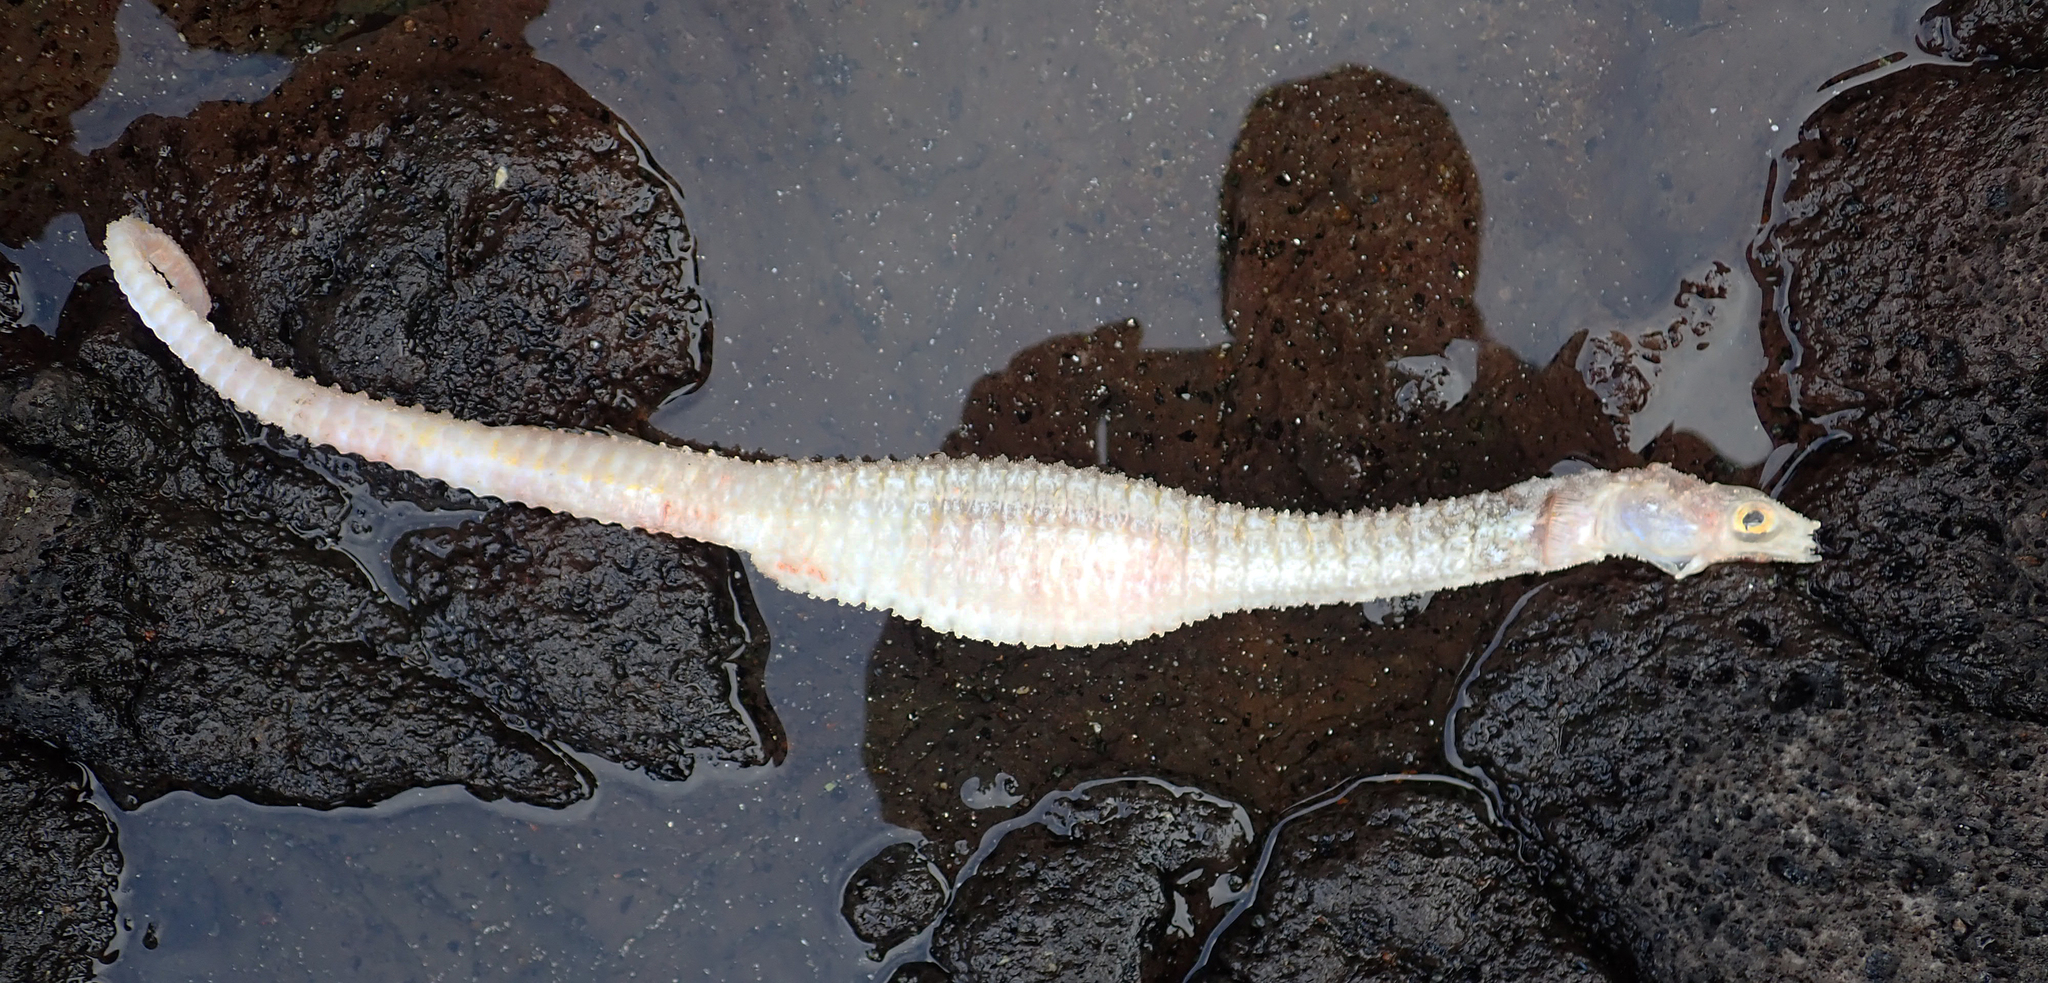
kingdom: Animalia
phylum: Chordata
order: Syngnathiformes
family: Syngnathidae
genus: Solegnathus
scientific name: Solegnathus spinosissimus
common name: Australian spiny pipehorse
